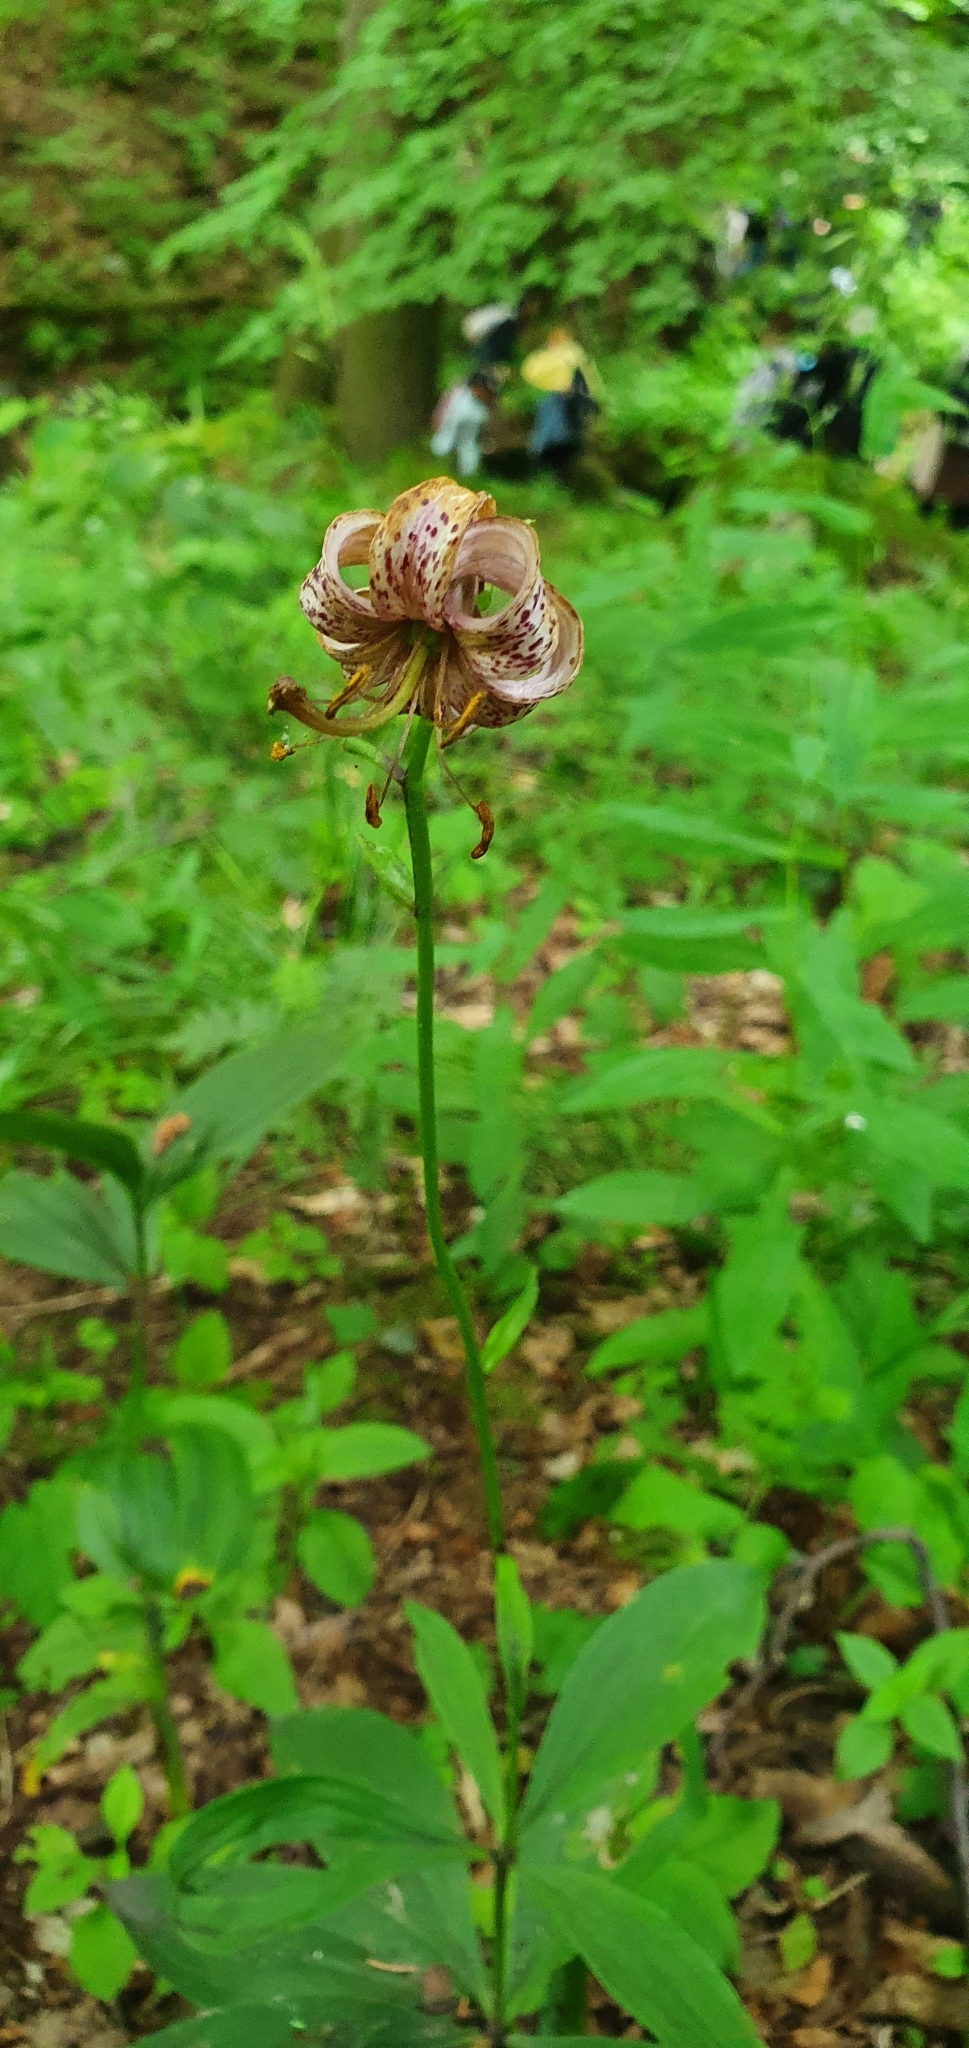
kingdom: Plantae
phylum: Tracheophyta
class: Liliopsida
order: Liliales
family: Liliaceae
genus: Lilium
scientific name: Lilium martagon
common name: Martagon lily
